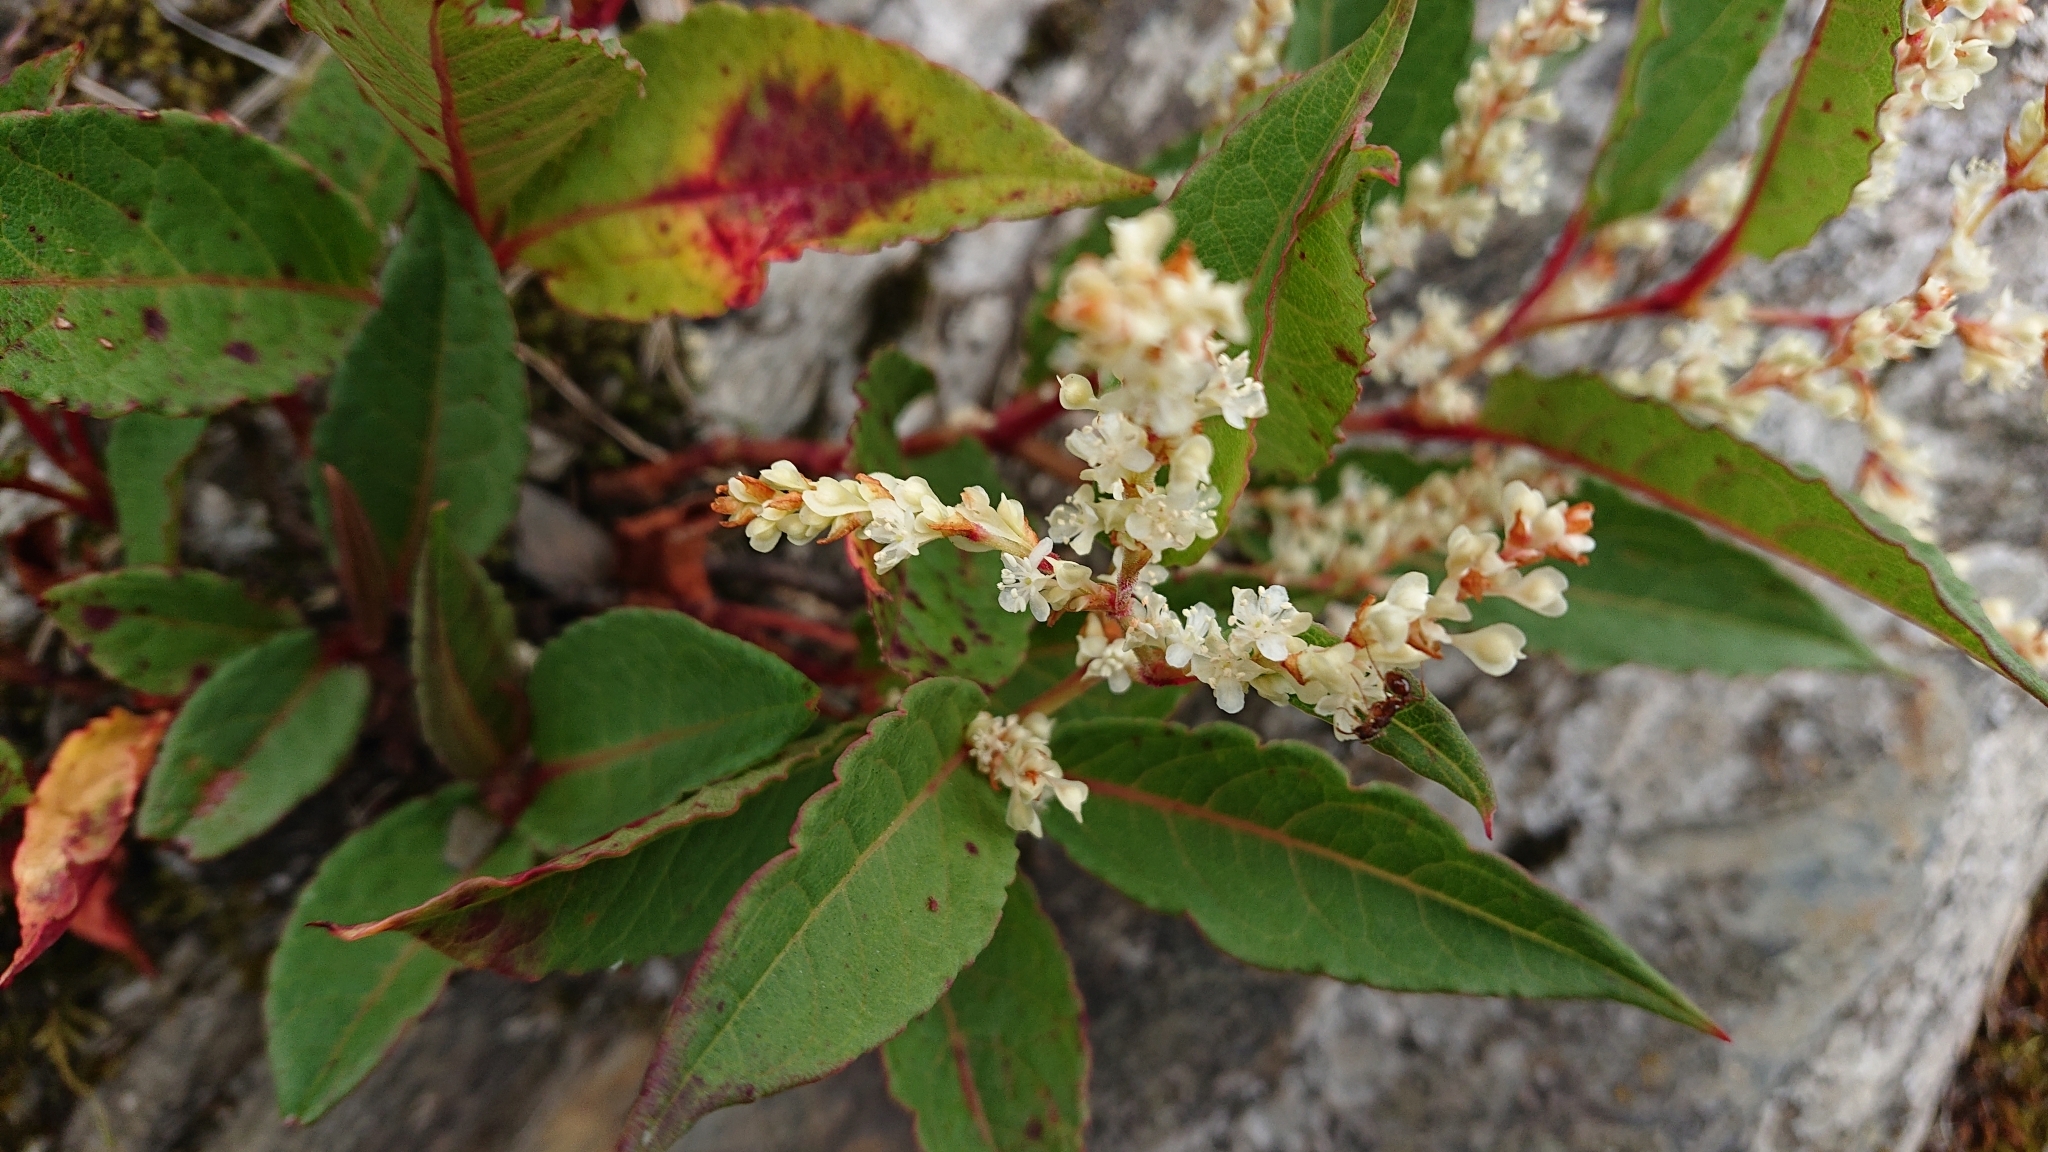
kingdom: Plantae
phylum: Tracheophyta
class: Magnoliopsida
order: Caryophyllales
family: Polygonaceae
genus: Reynoutria
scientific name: Reynoutria japonica
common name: Japanese knotweed
